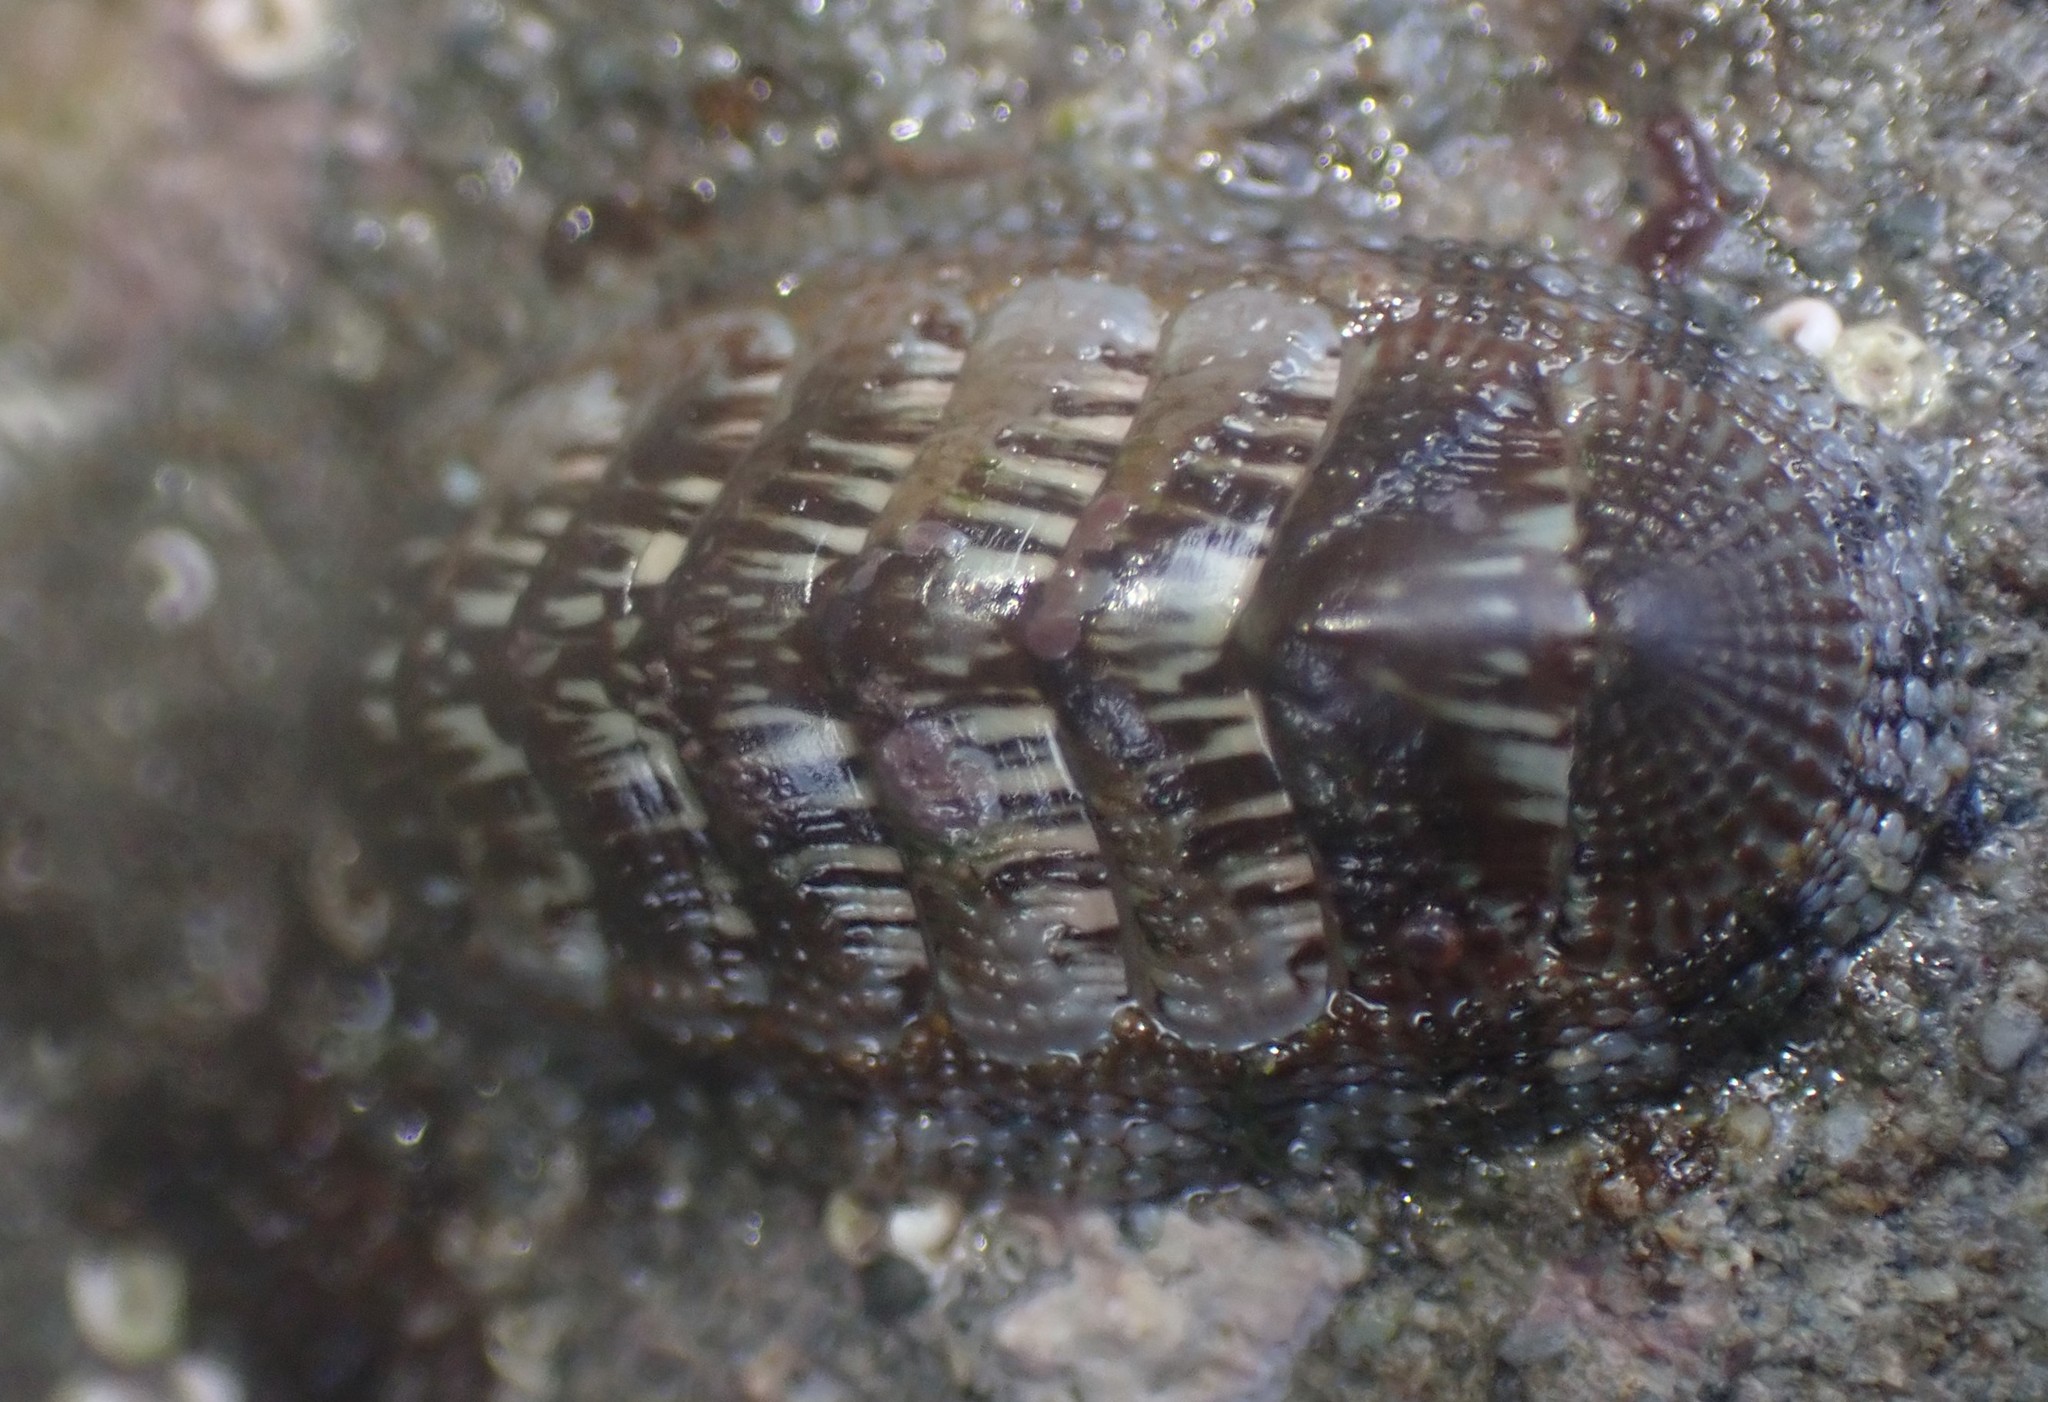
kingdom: Animalia
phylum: Mollusca
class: Polyplacophora
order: Chitonida
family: Chitonidae
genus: Sypharochiton
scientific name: Sypharochiton sinclairi
